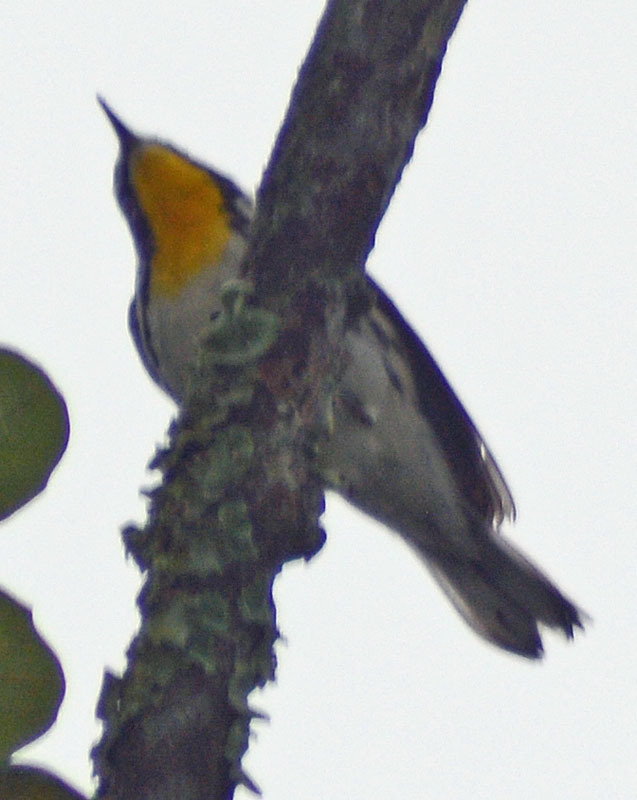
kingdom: Animalia
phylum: Chordata
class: Aves
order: Passeriformes
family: Parulidae
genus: Setophaga
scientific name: Setophaga dominica
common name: Yellow-throated warbler
